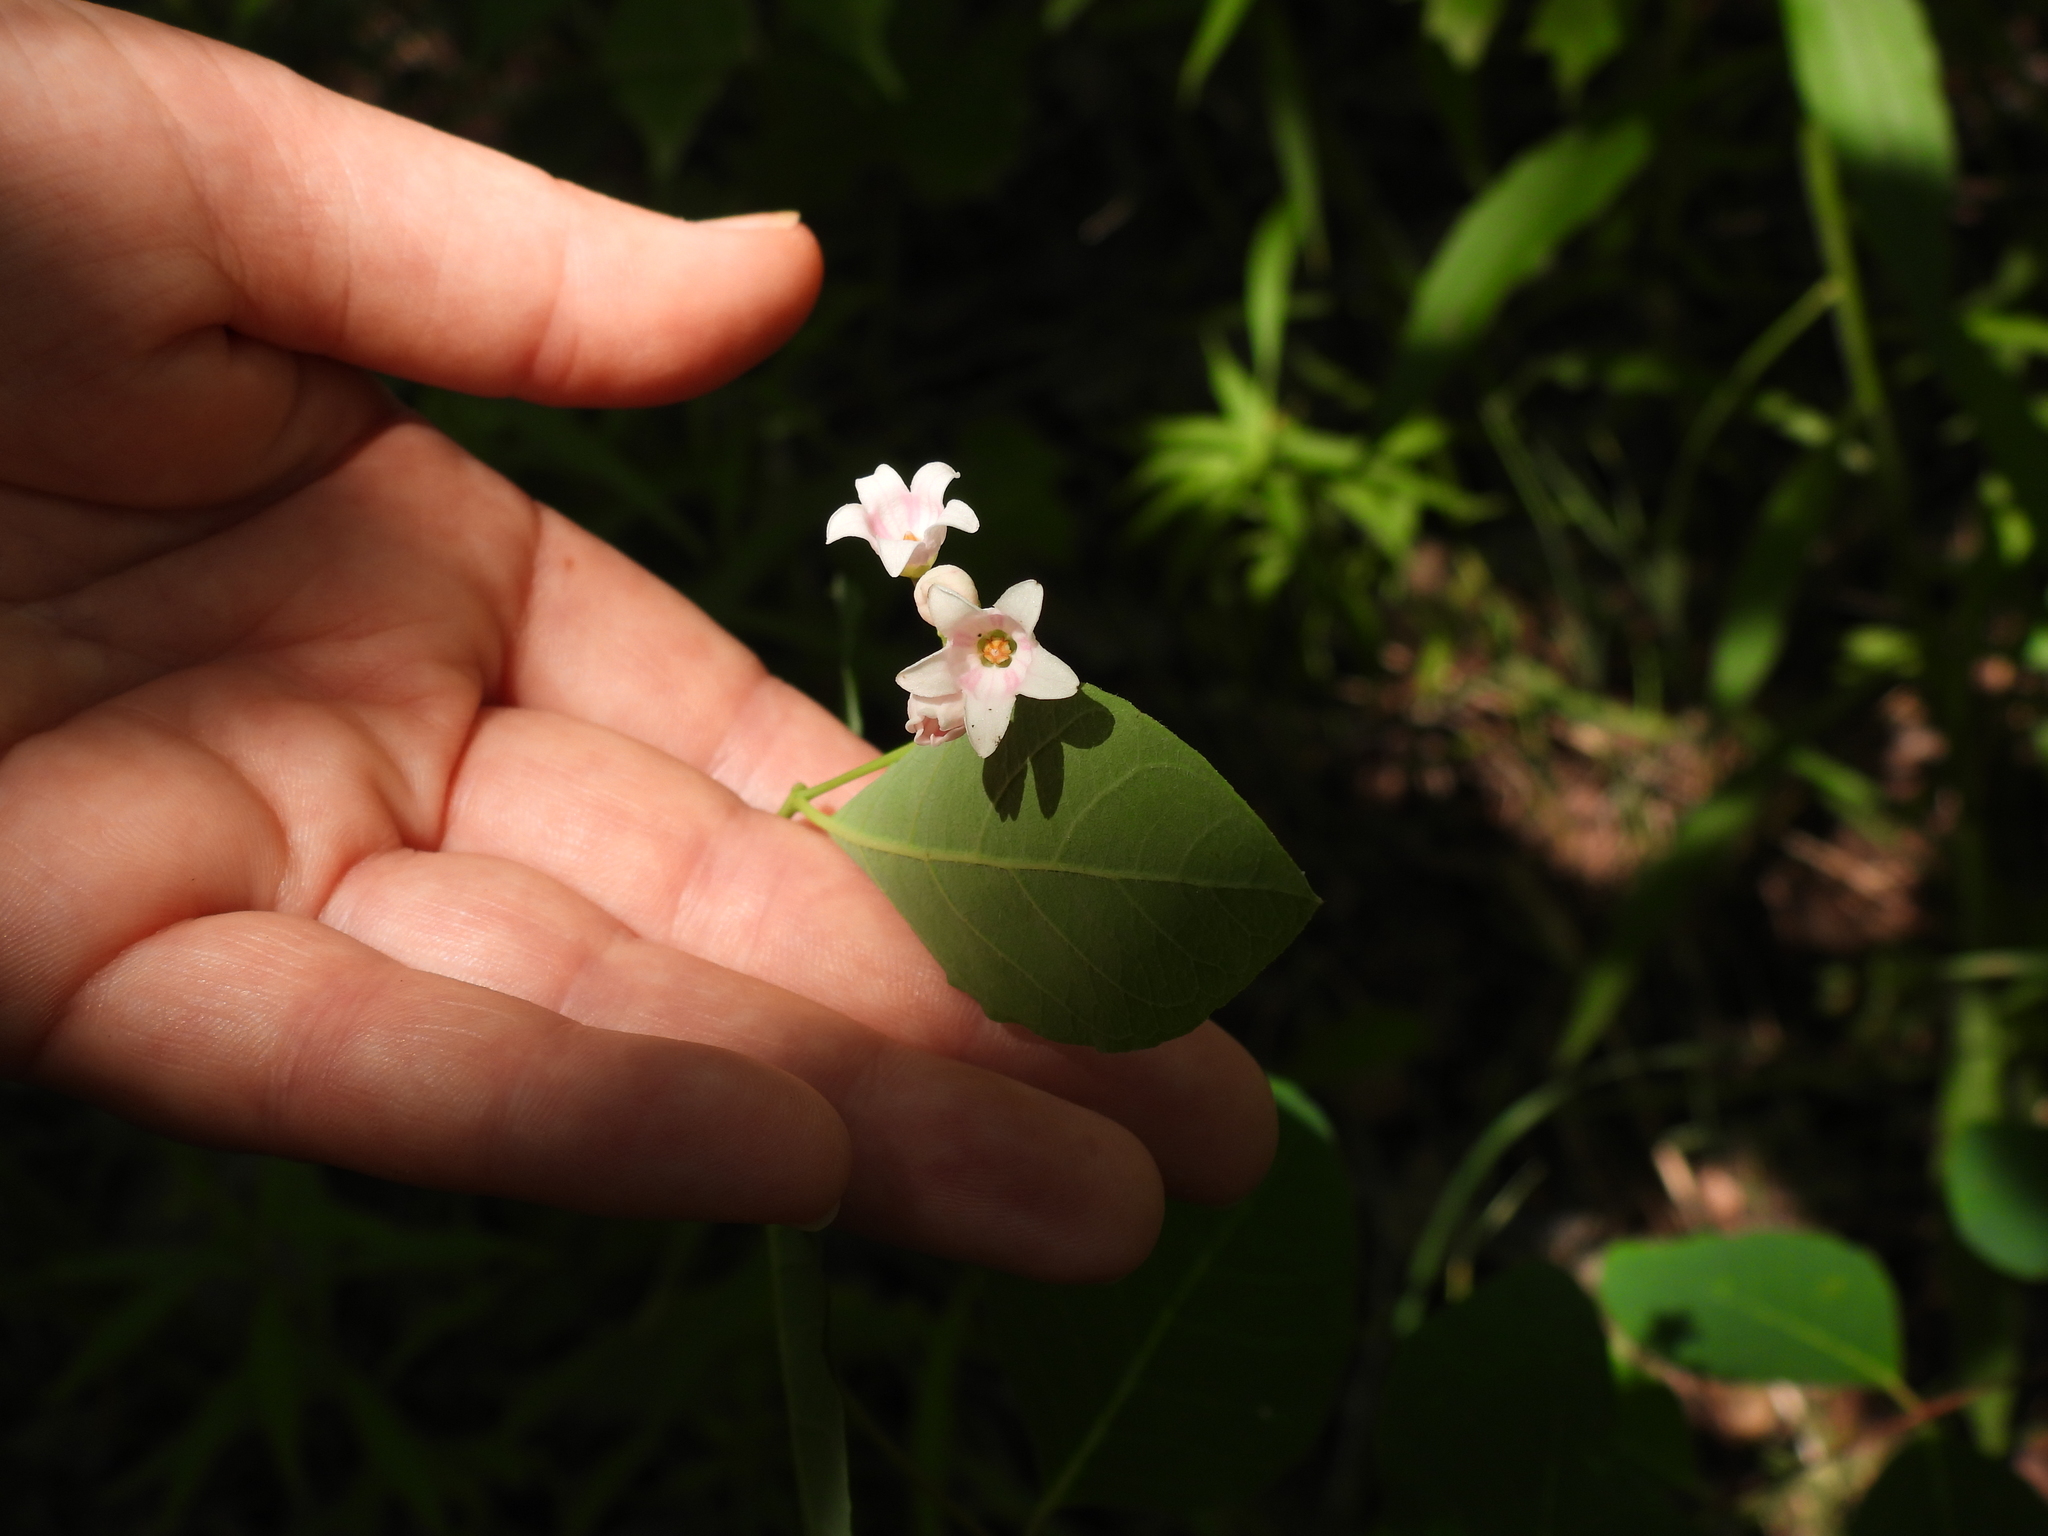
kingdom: Plantae
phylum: Tracheophyta
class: Magnoliopsida
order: Gentianales
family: Apocynaceae
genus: Apocynum
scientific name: Apocynum androsaemifolium
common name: Spreading dogbane
